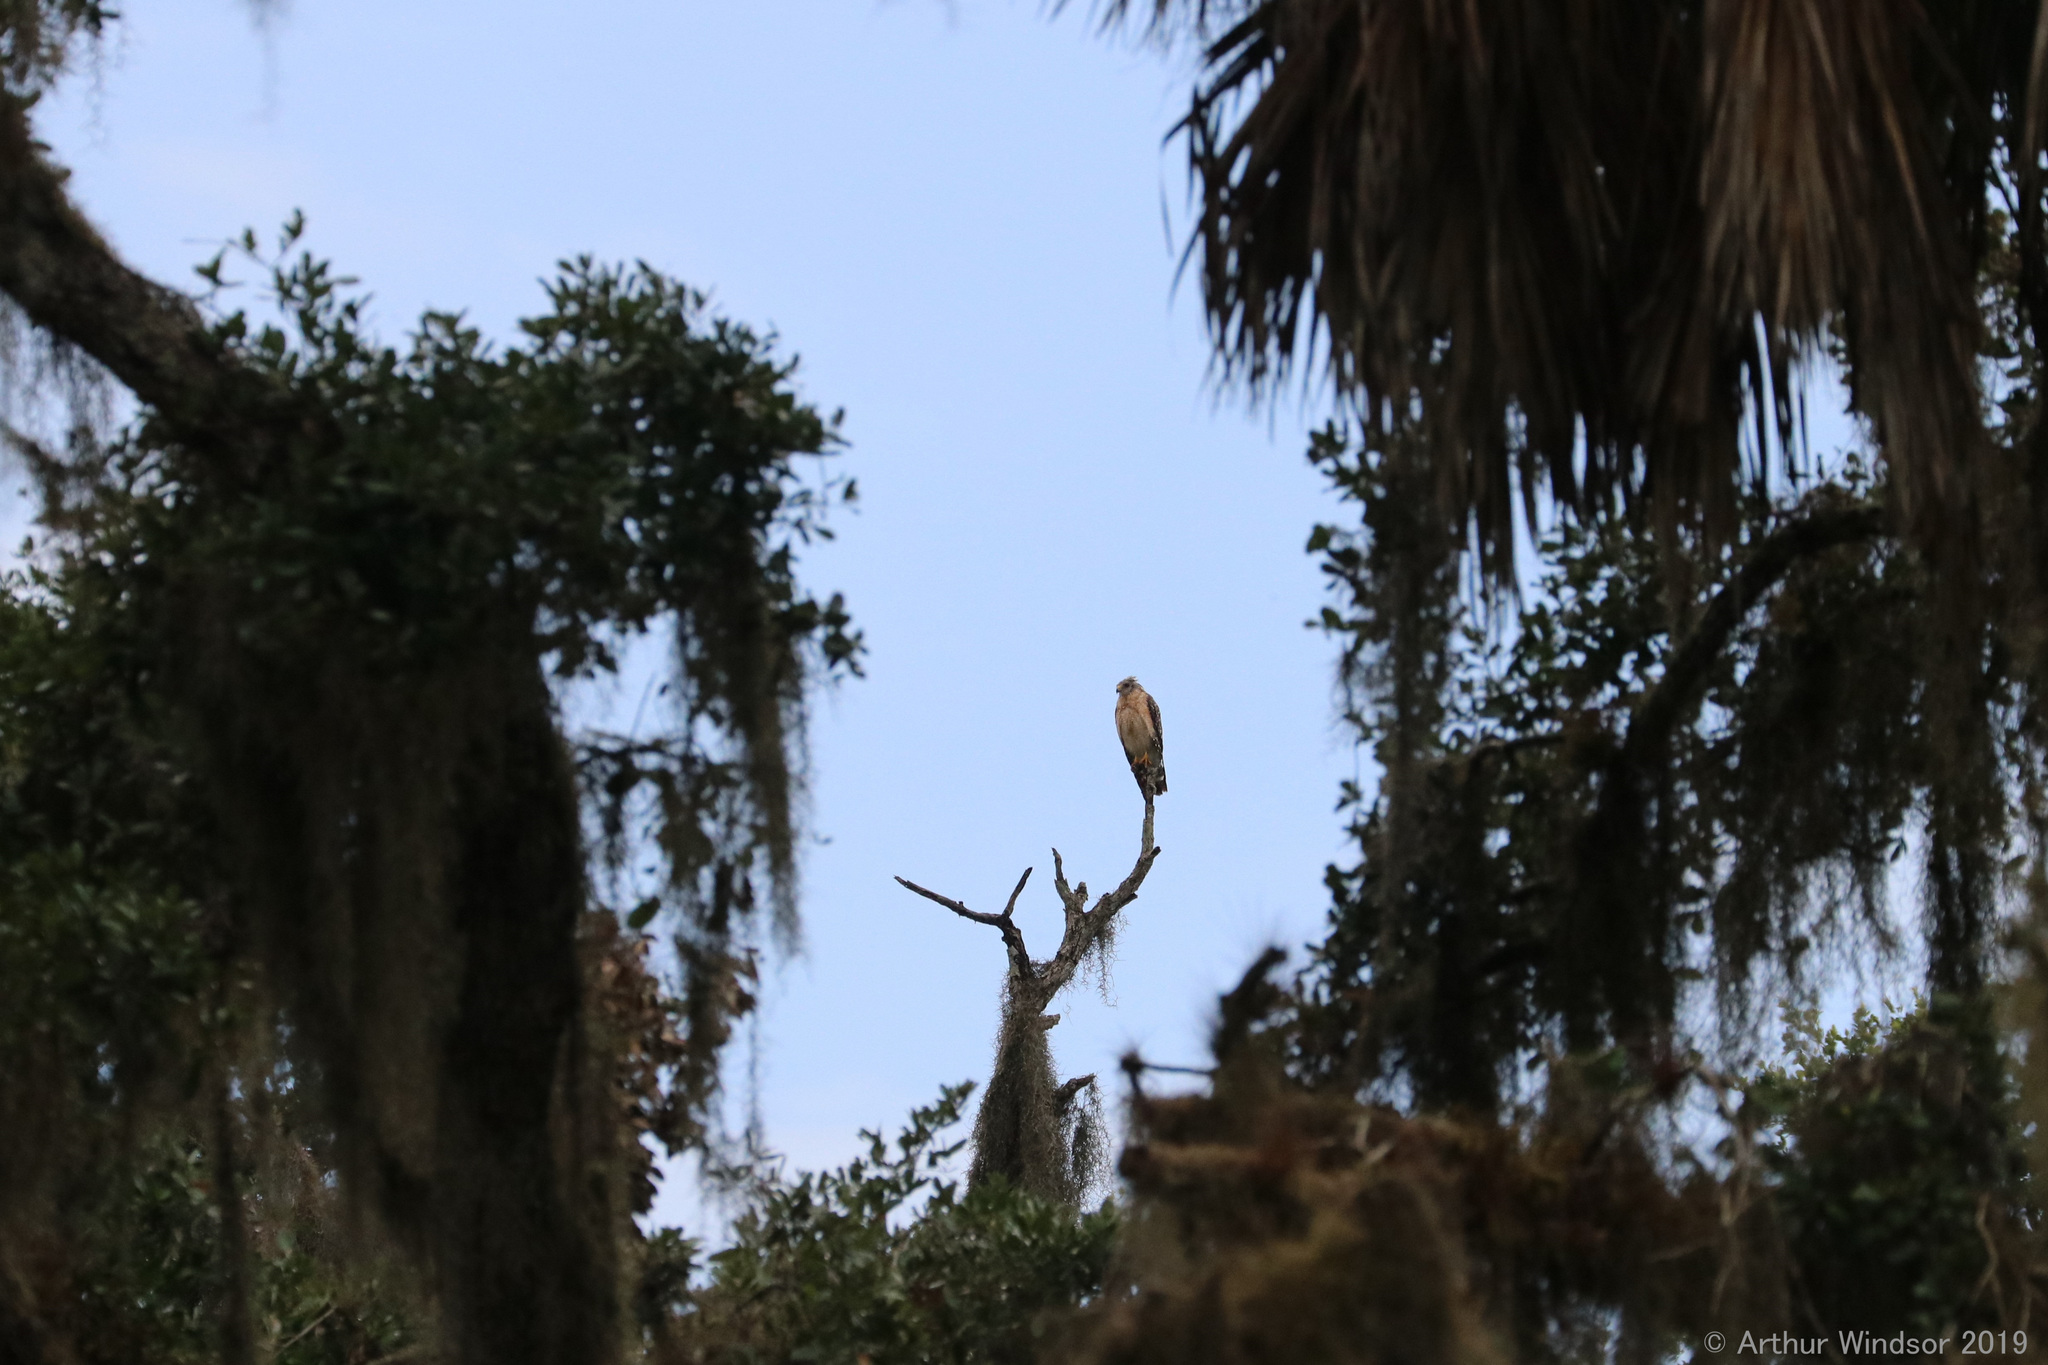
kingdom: Animalia
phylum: Chordata
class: Aves
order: Accipitriformes
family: Accipitridae
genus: Buteo
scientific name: Buteo lineatus
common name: Red-shouldered hawk
